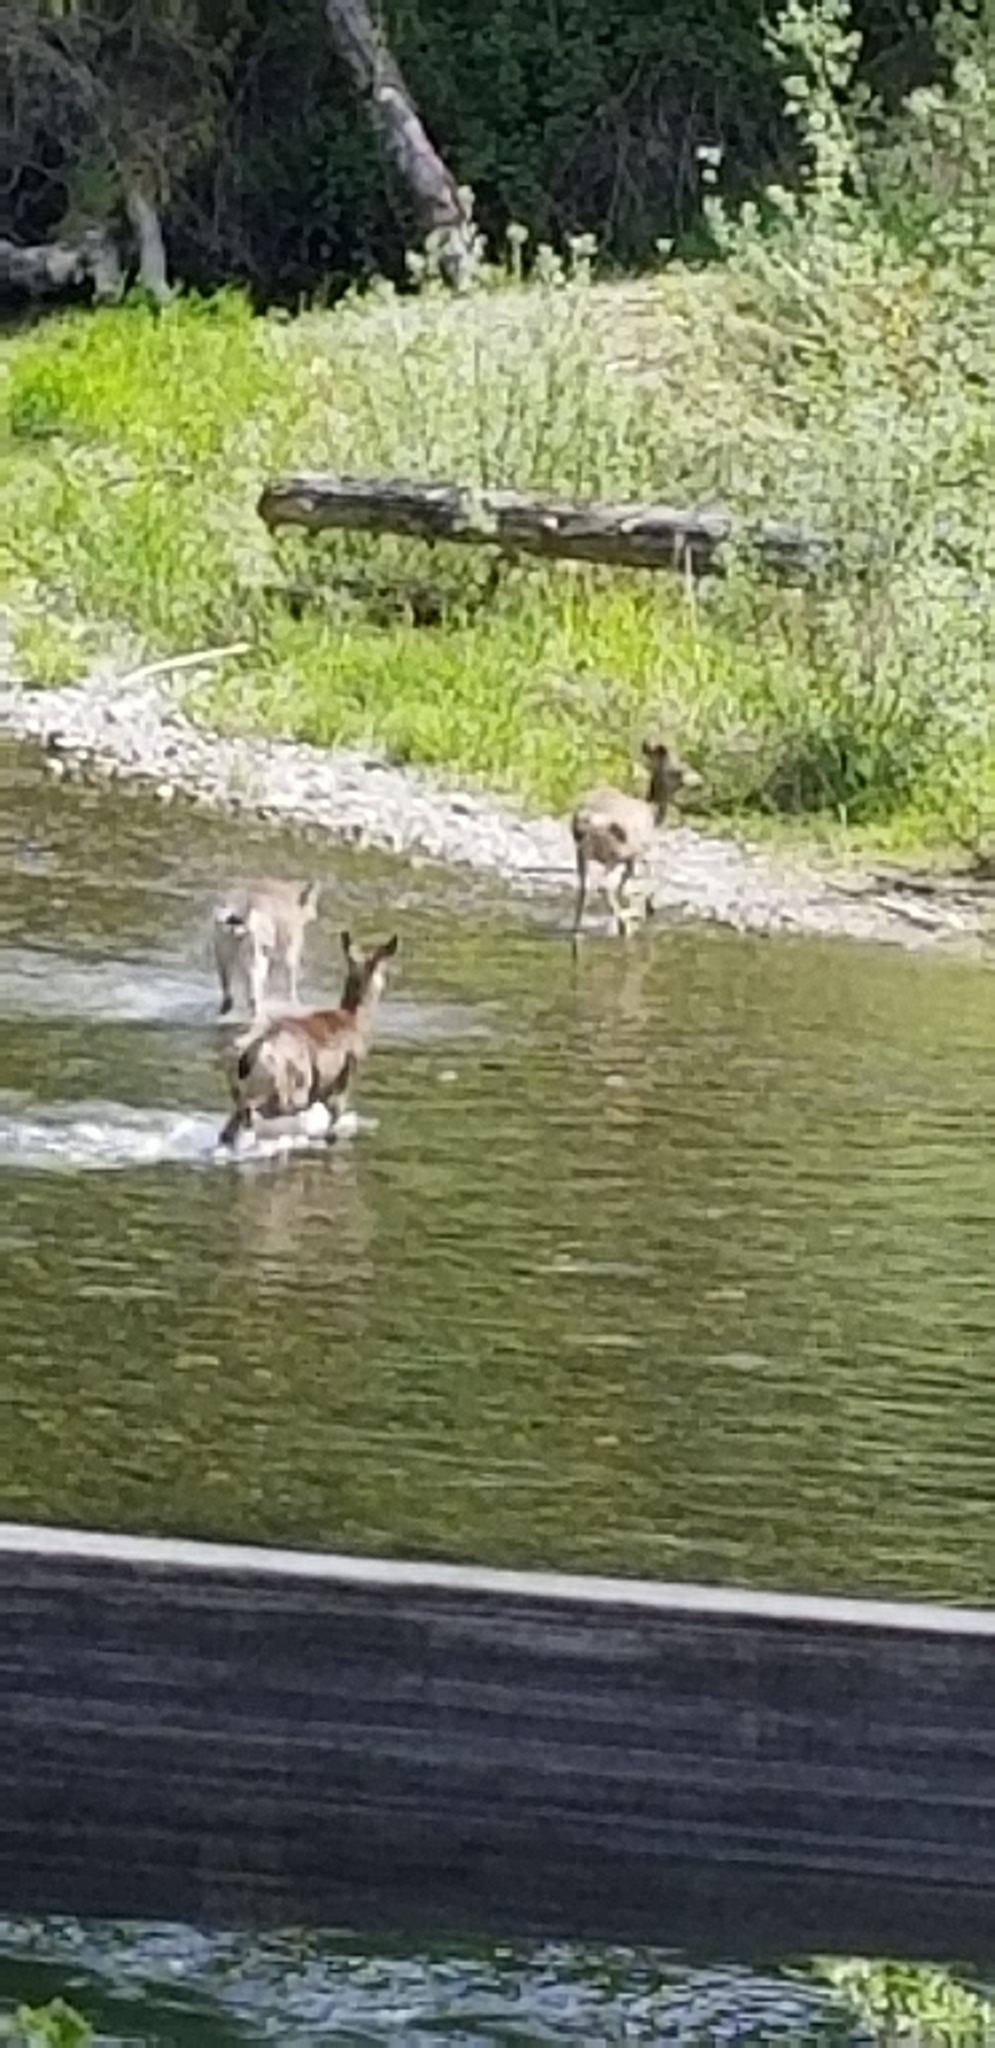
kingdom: Animalia
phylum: Chordata
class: Mammalia
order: Artiodactyla
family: Cervidae
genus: Odocoileus
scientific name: Odocoileus hemionus
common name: Mule deer
